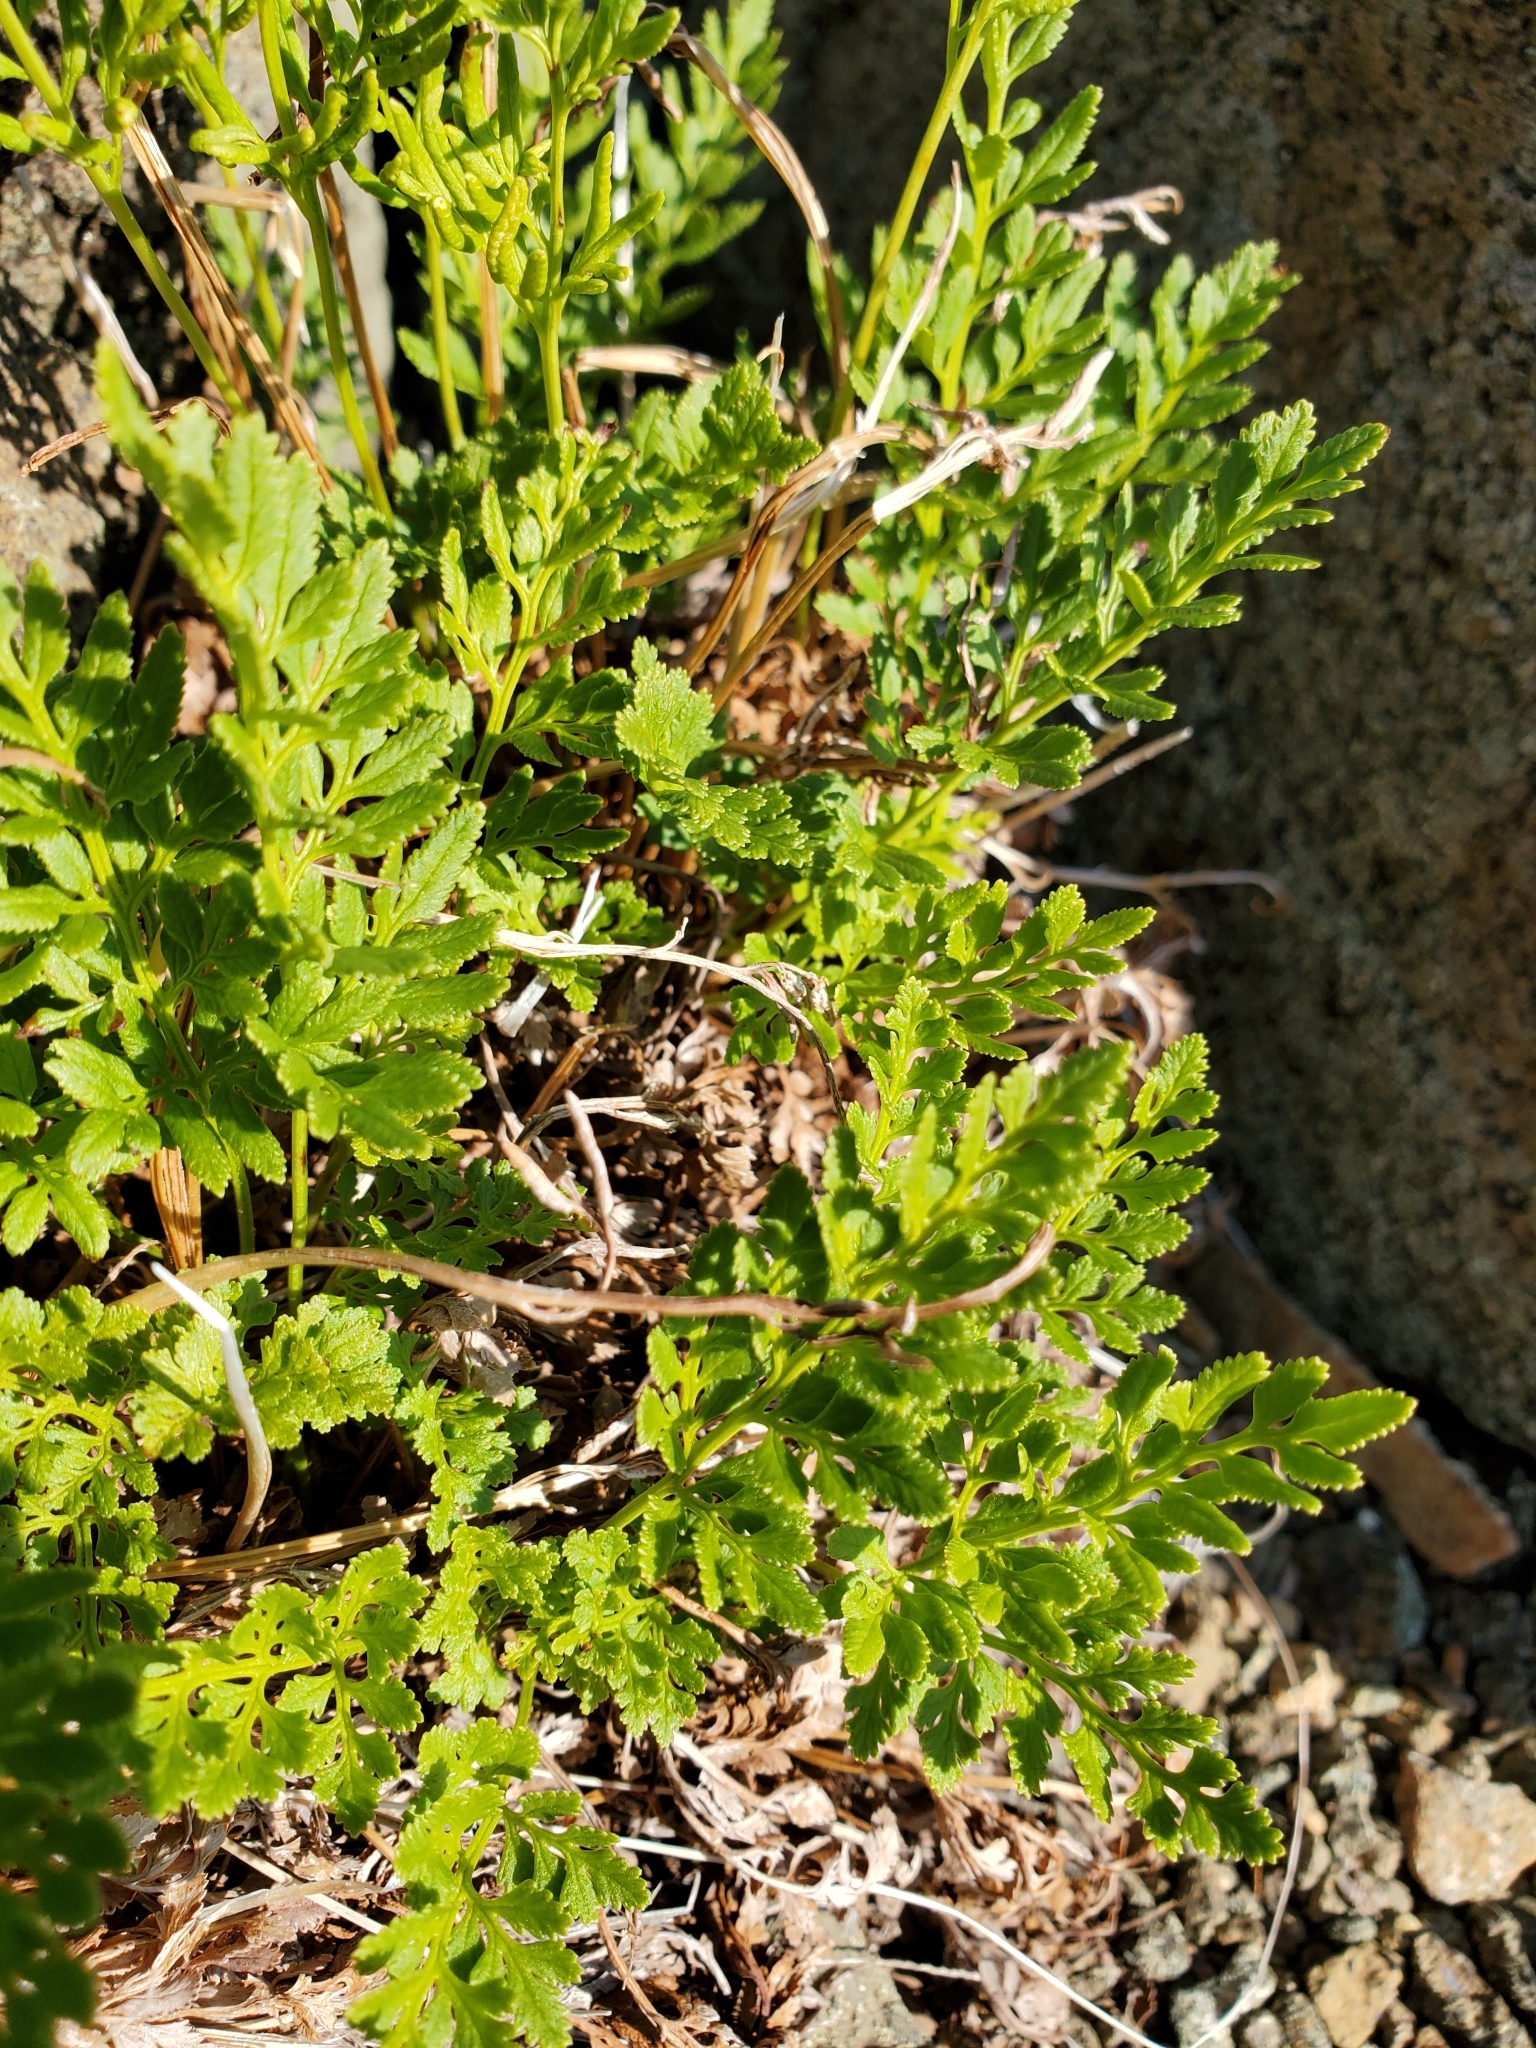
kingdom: Plantae
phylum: Tracheophyta
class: Polypodiopsida
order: Polypodiales
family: Pteridaceae
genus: Cryptogramma
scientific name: Cryptogramma acrostichoides
